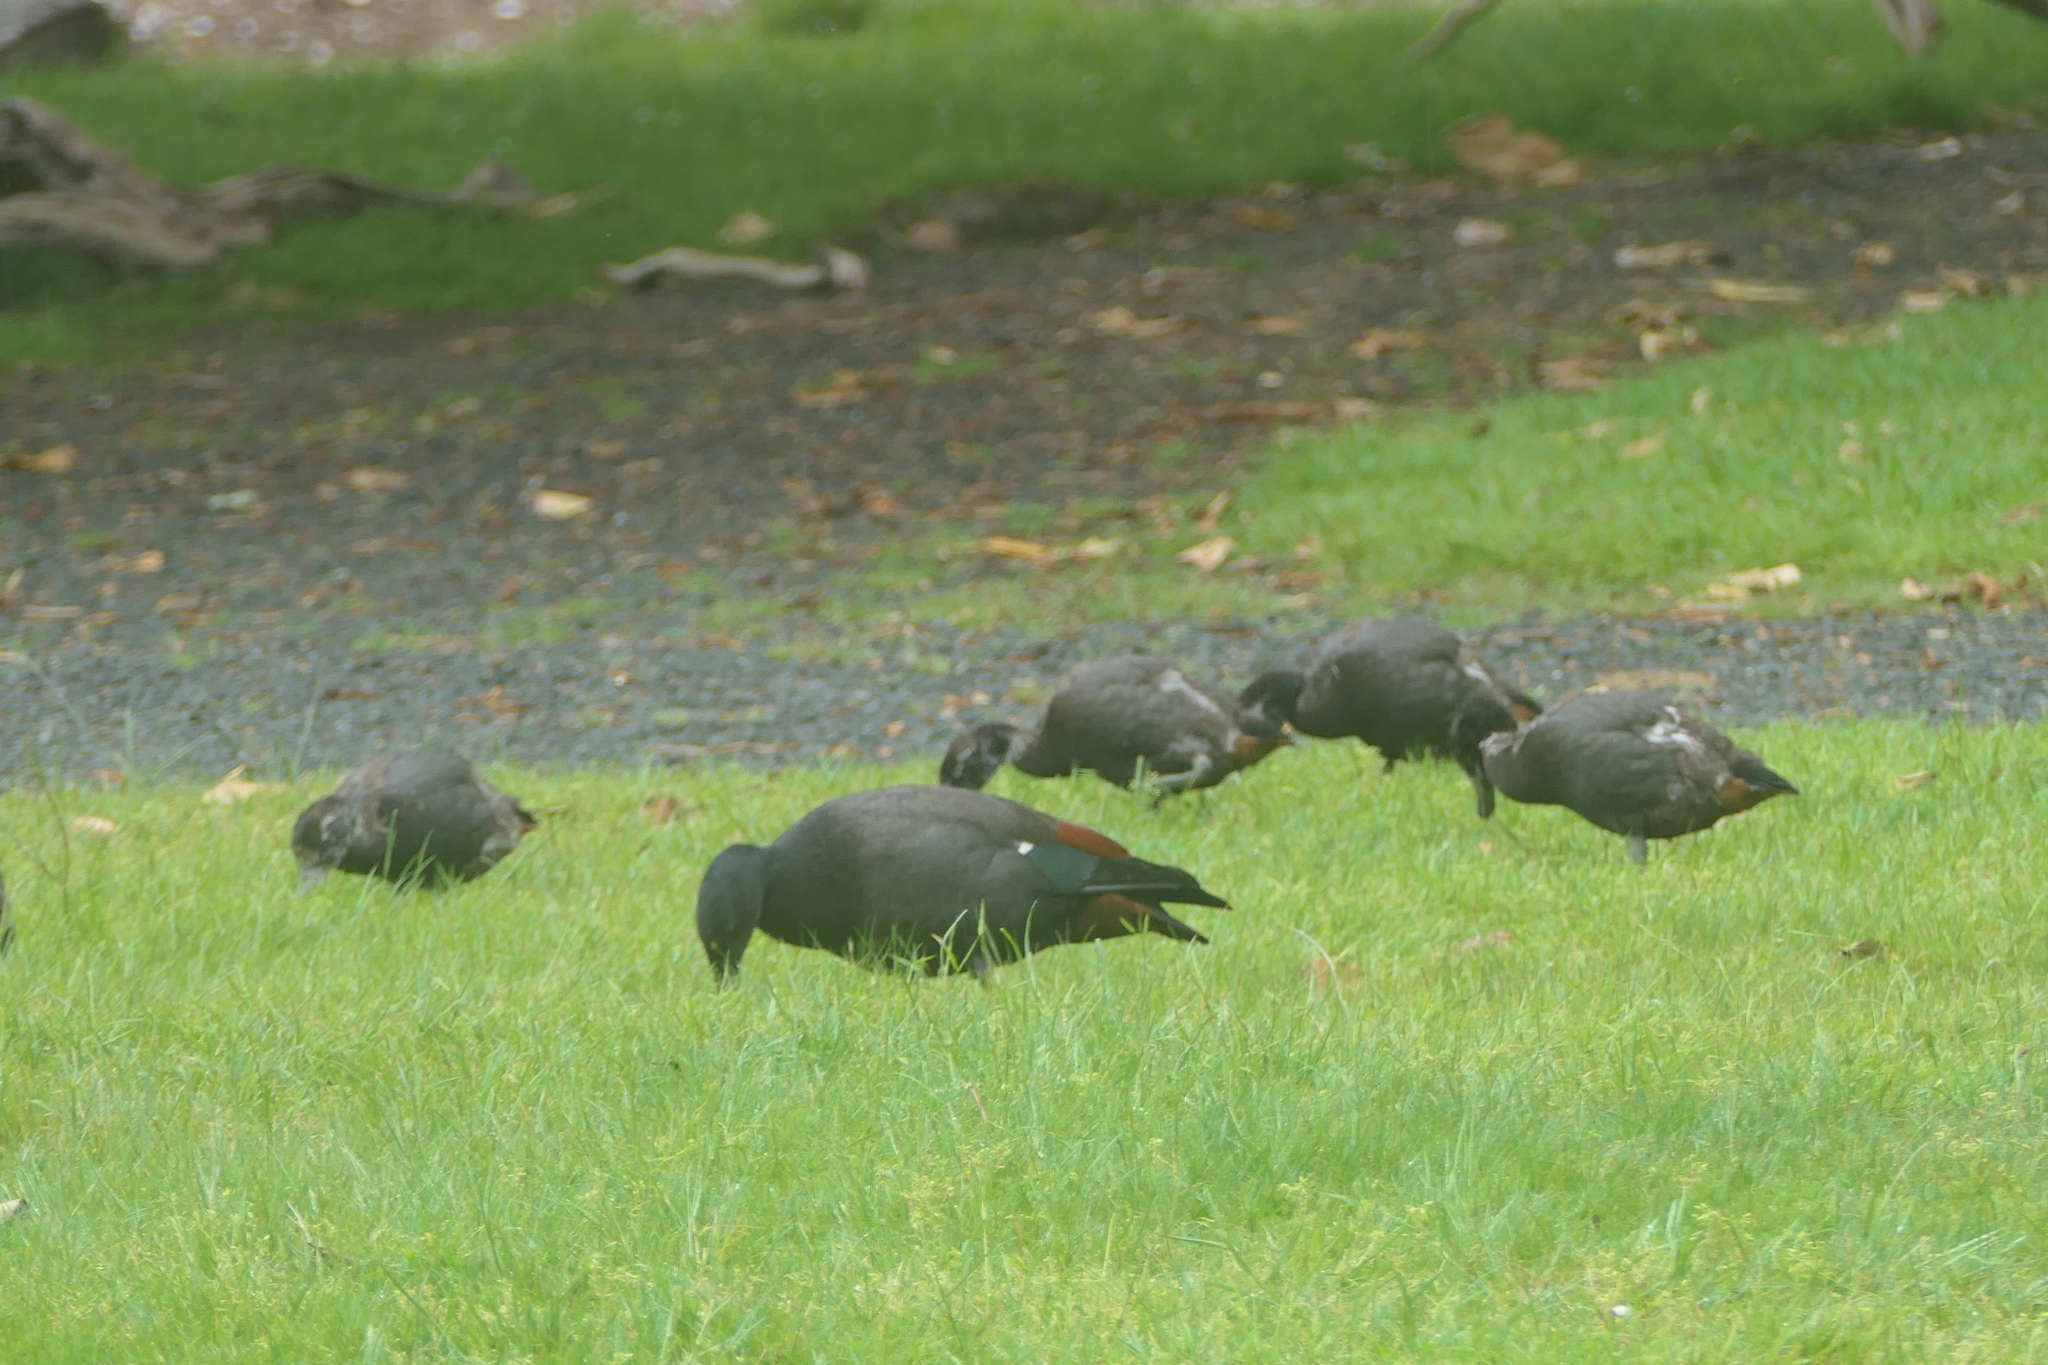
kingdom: Animalia
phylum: Chordata
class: Aves
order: Anseriformes
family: Anatidae
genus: Tadorna
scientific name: Tadorna variegata
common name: Paradise shelduck
